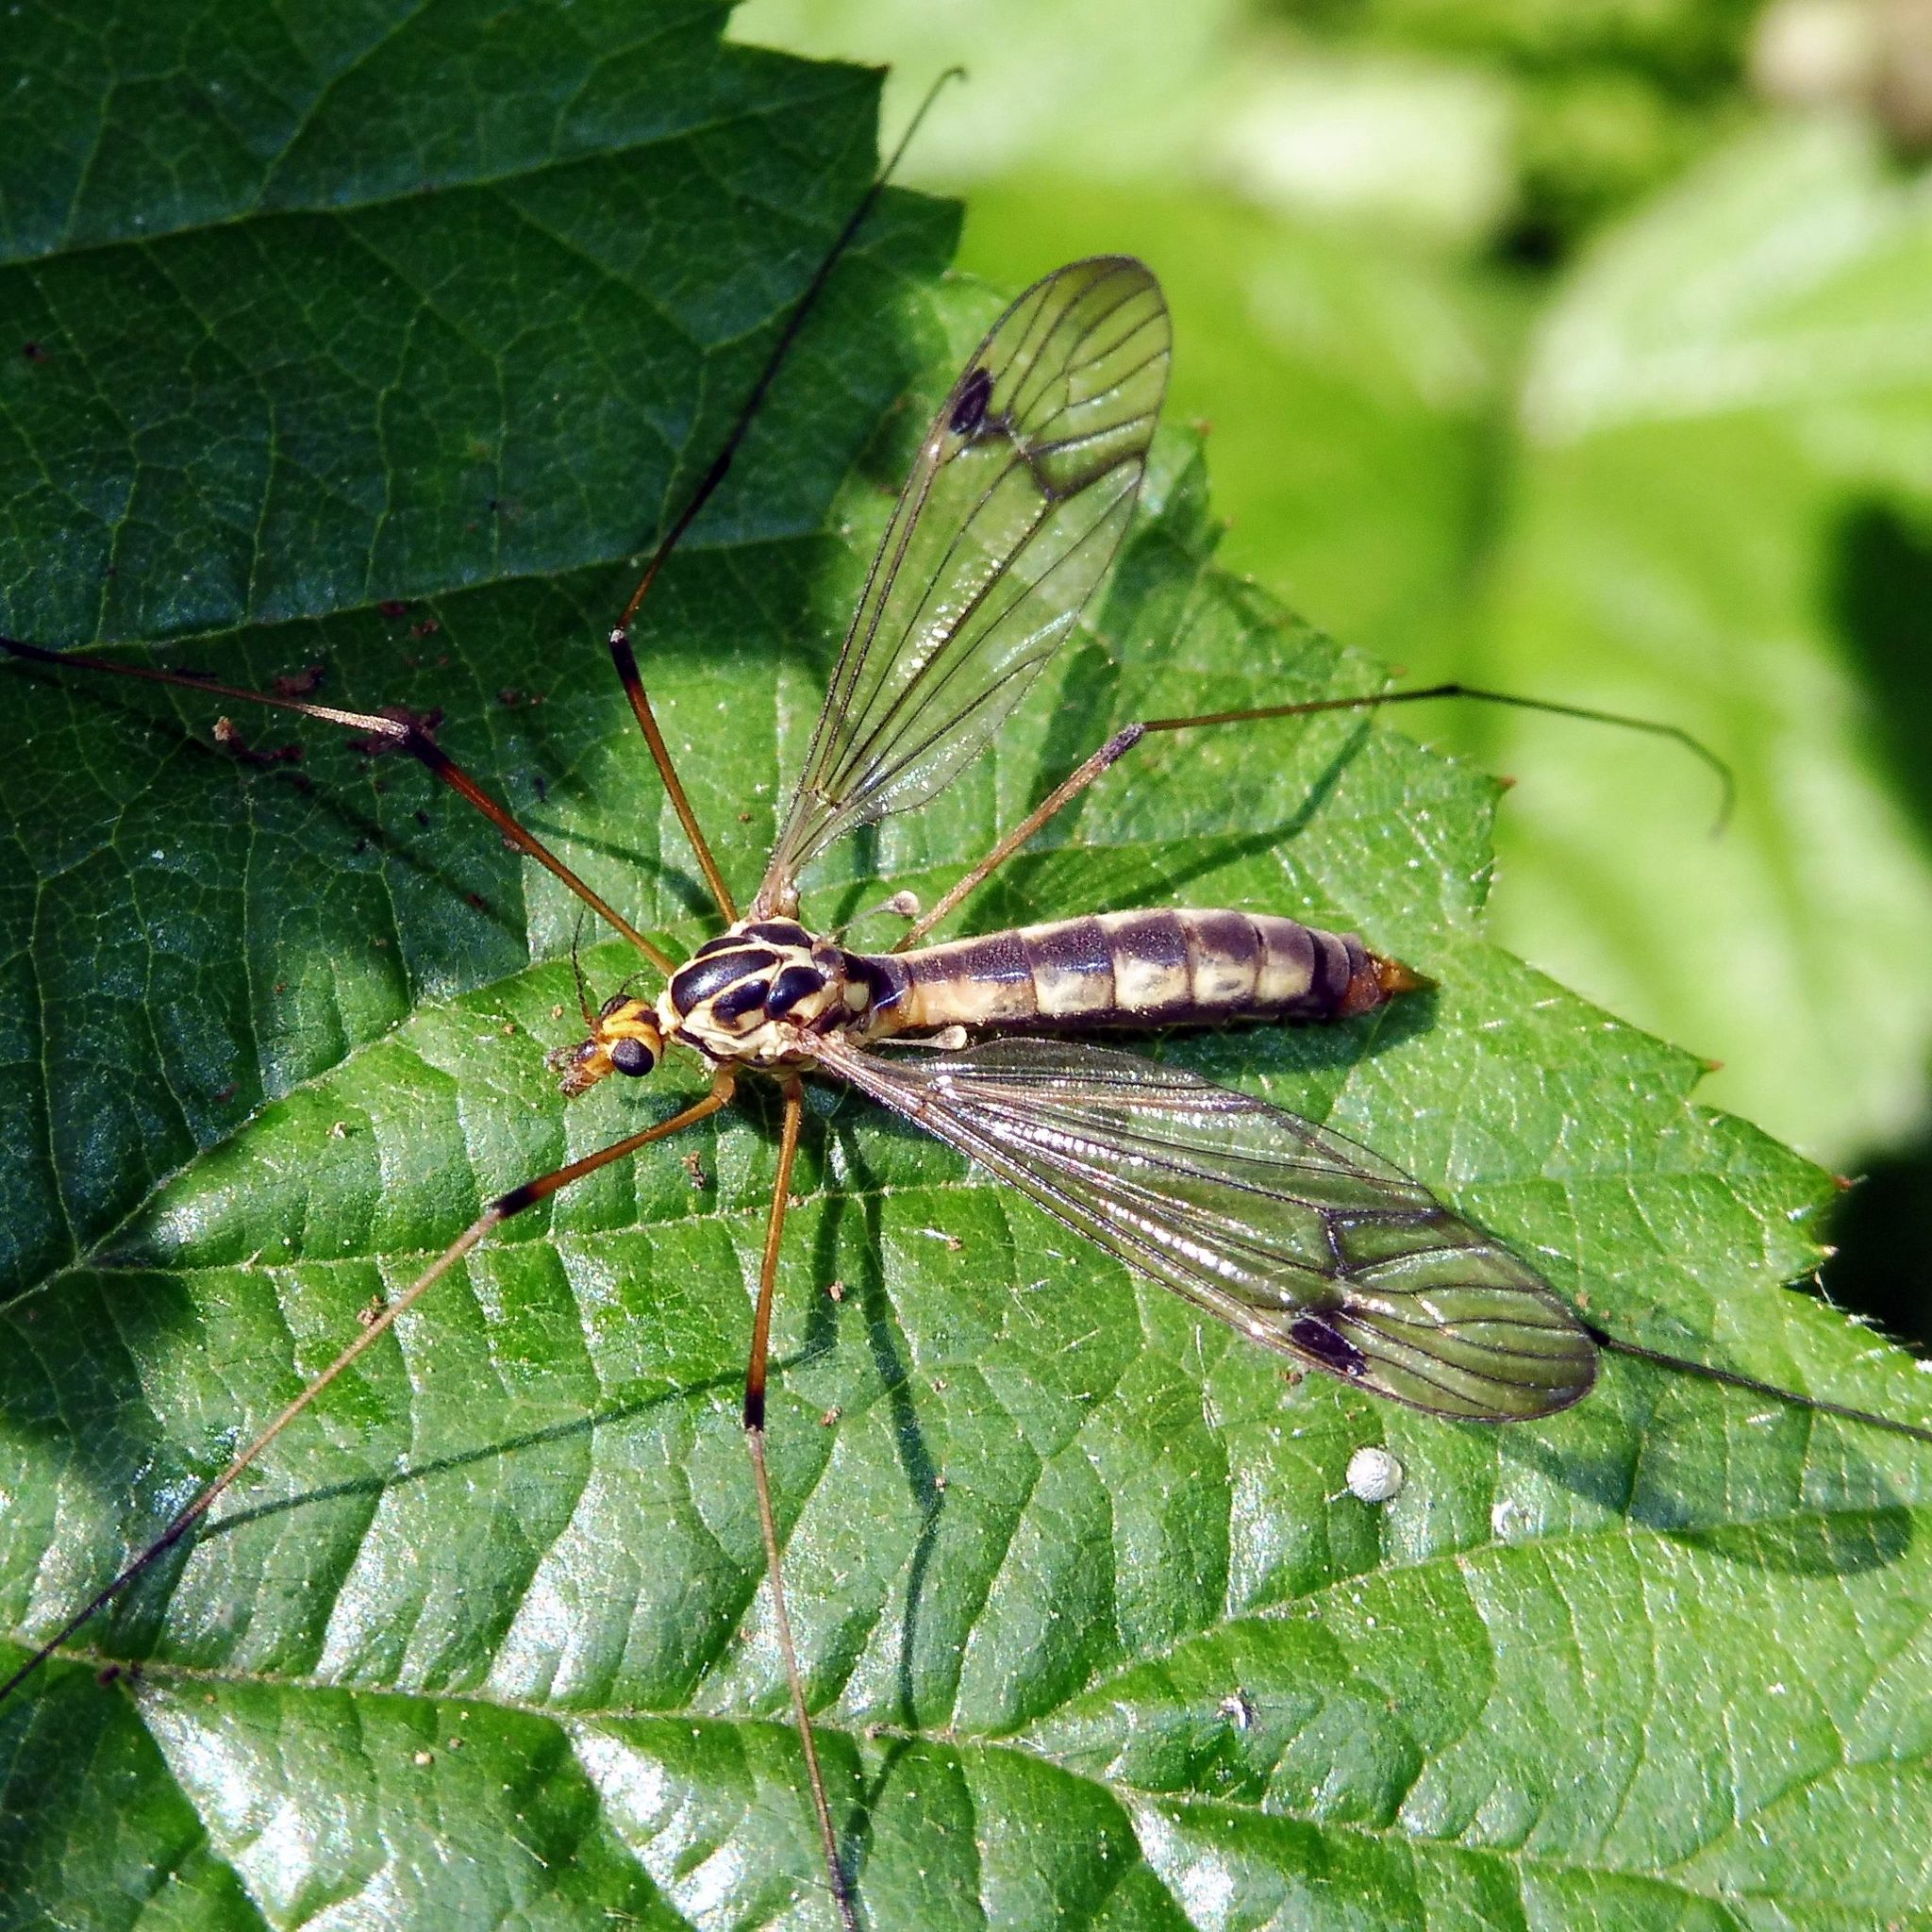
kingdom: Animalia
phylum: Arthropoda
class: Insecta
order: Diptera
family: Tipulidae
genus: Nephrotoma
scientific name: Nephrotoma quadrifaria
